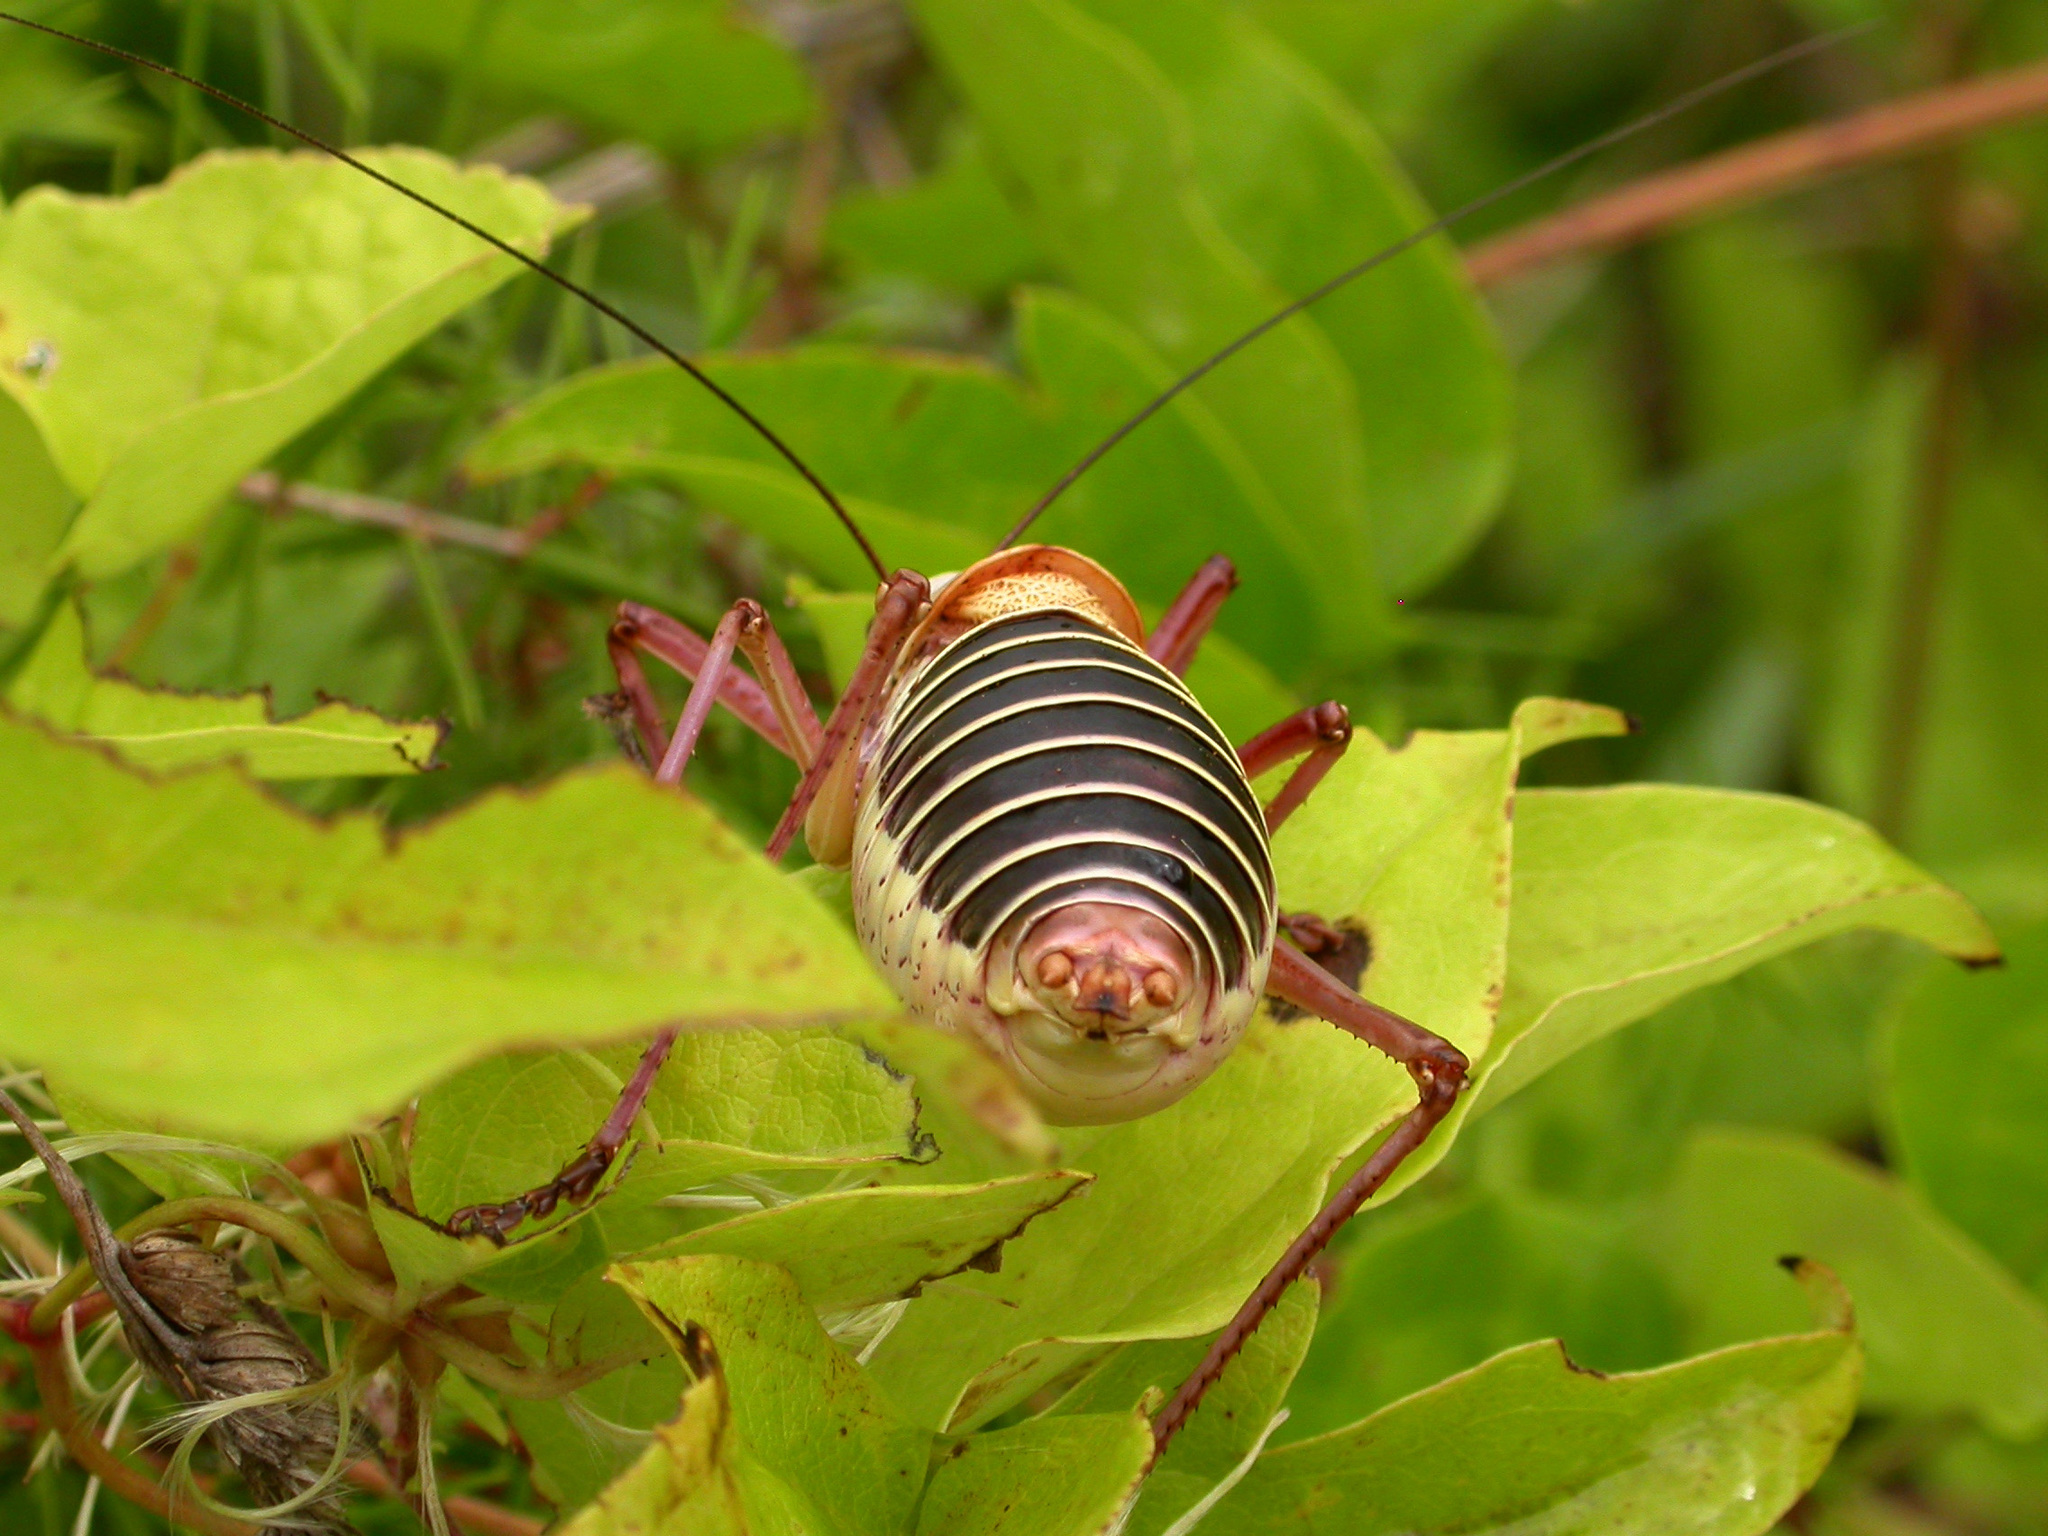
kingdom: Animalia
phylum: Arthropoda
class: Insecta
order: Orthoptera
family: Tettigoniidae
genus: Ephippiger
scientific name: Ephippiger diurnus
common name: Western saddle bush-cricket
